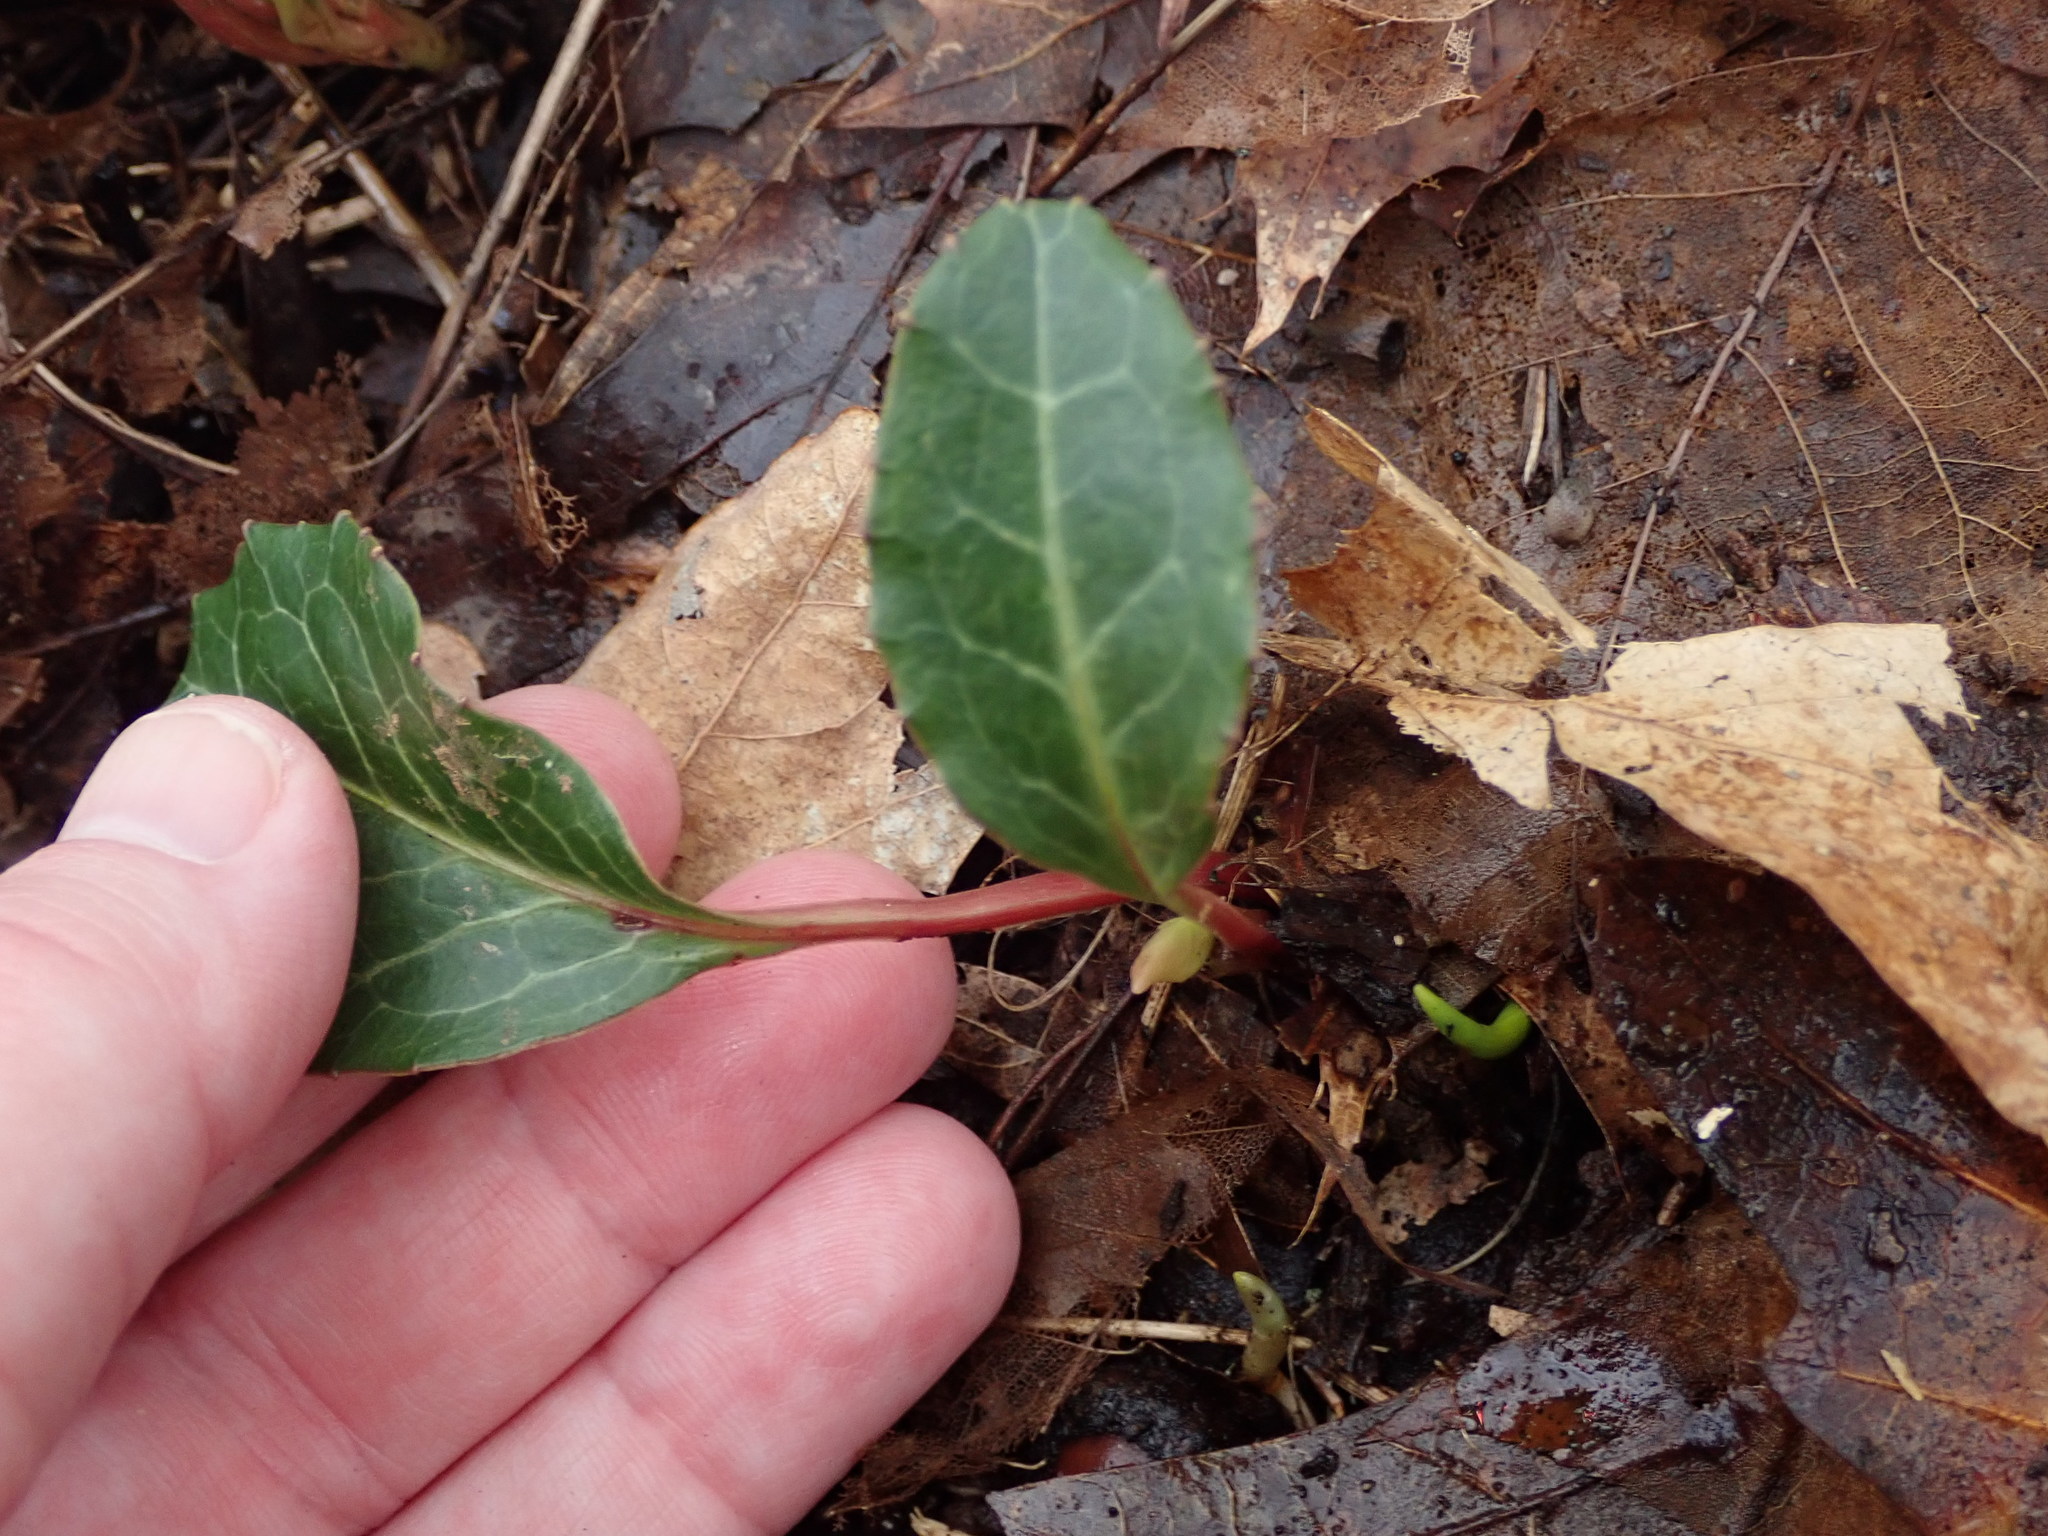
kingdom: Plantae
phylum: Tracheophyta
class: Magnoliopsida
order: Ericales
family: Ericaceae
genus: Pyrola
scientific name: Pyrola americana
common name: American wintergreen
